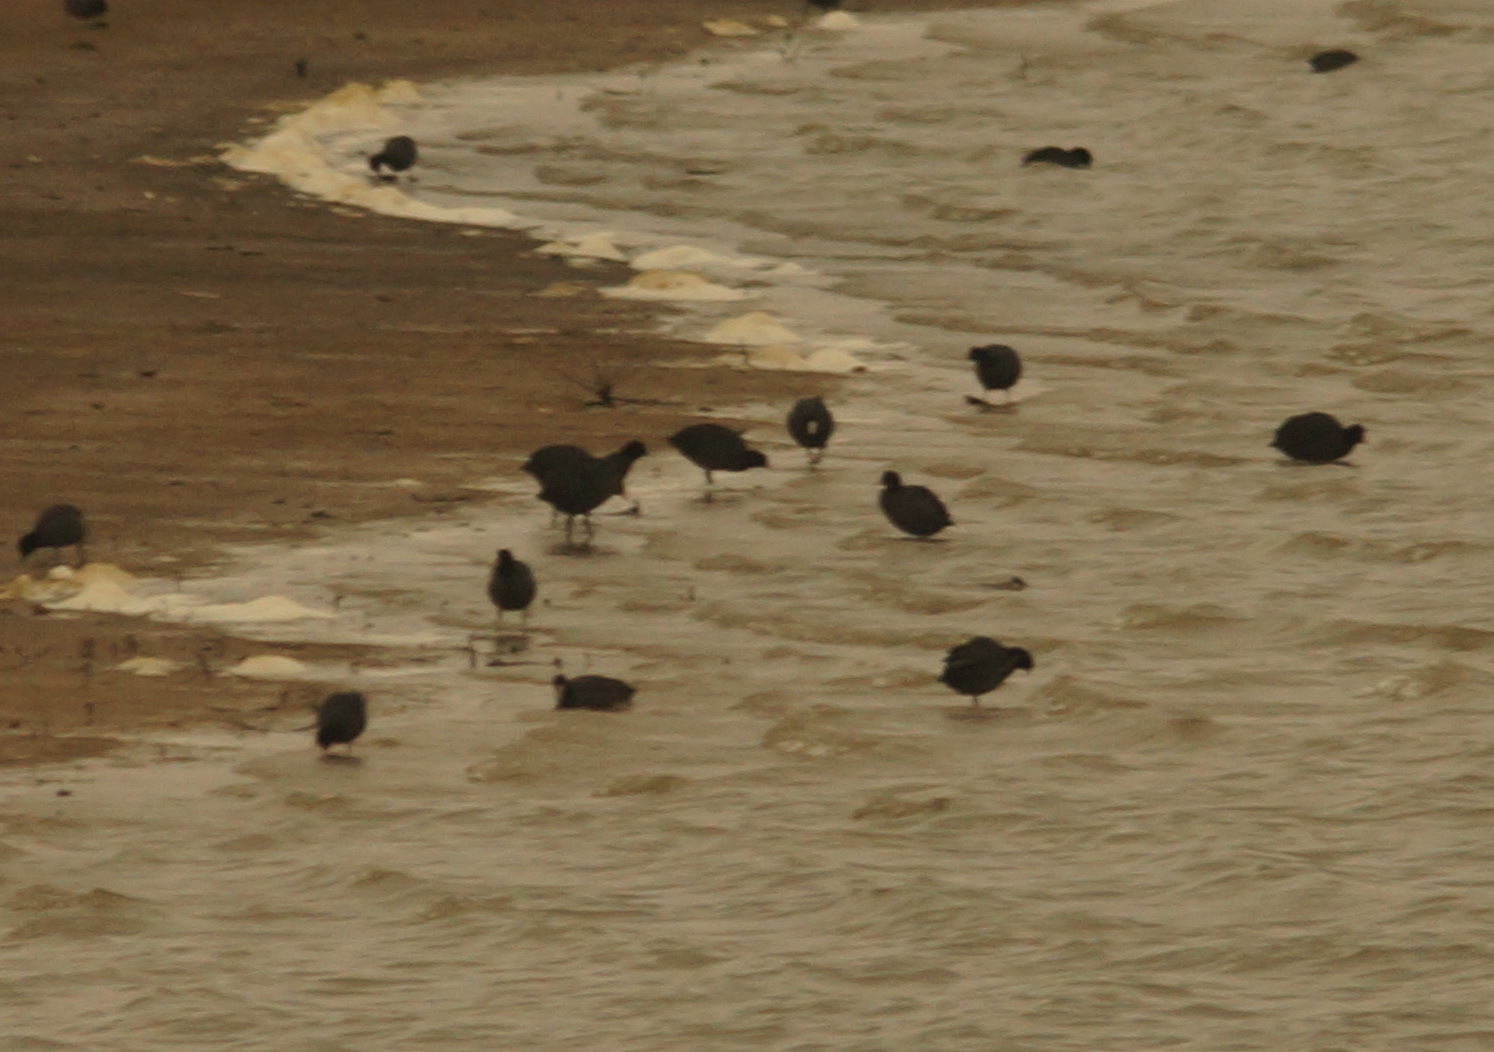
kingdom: Animalia
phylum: Chordata
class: Aves
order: Gruiformes
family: Rallidae
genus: Fulica
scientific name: Fulica atra
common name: Eurasian coot
